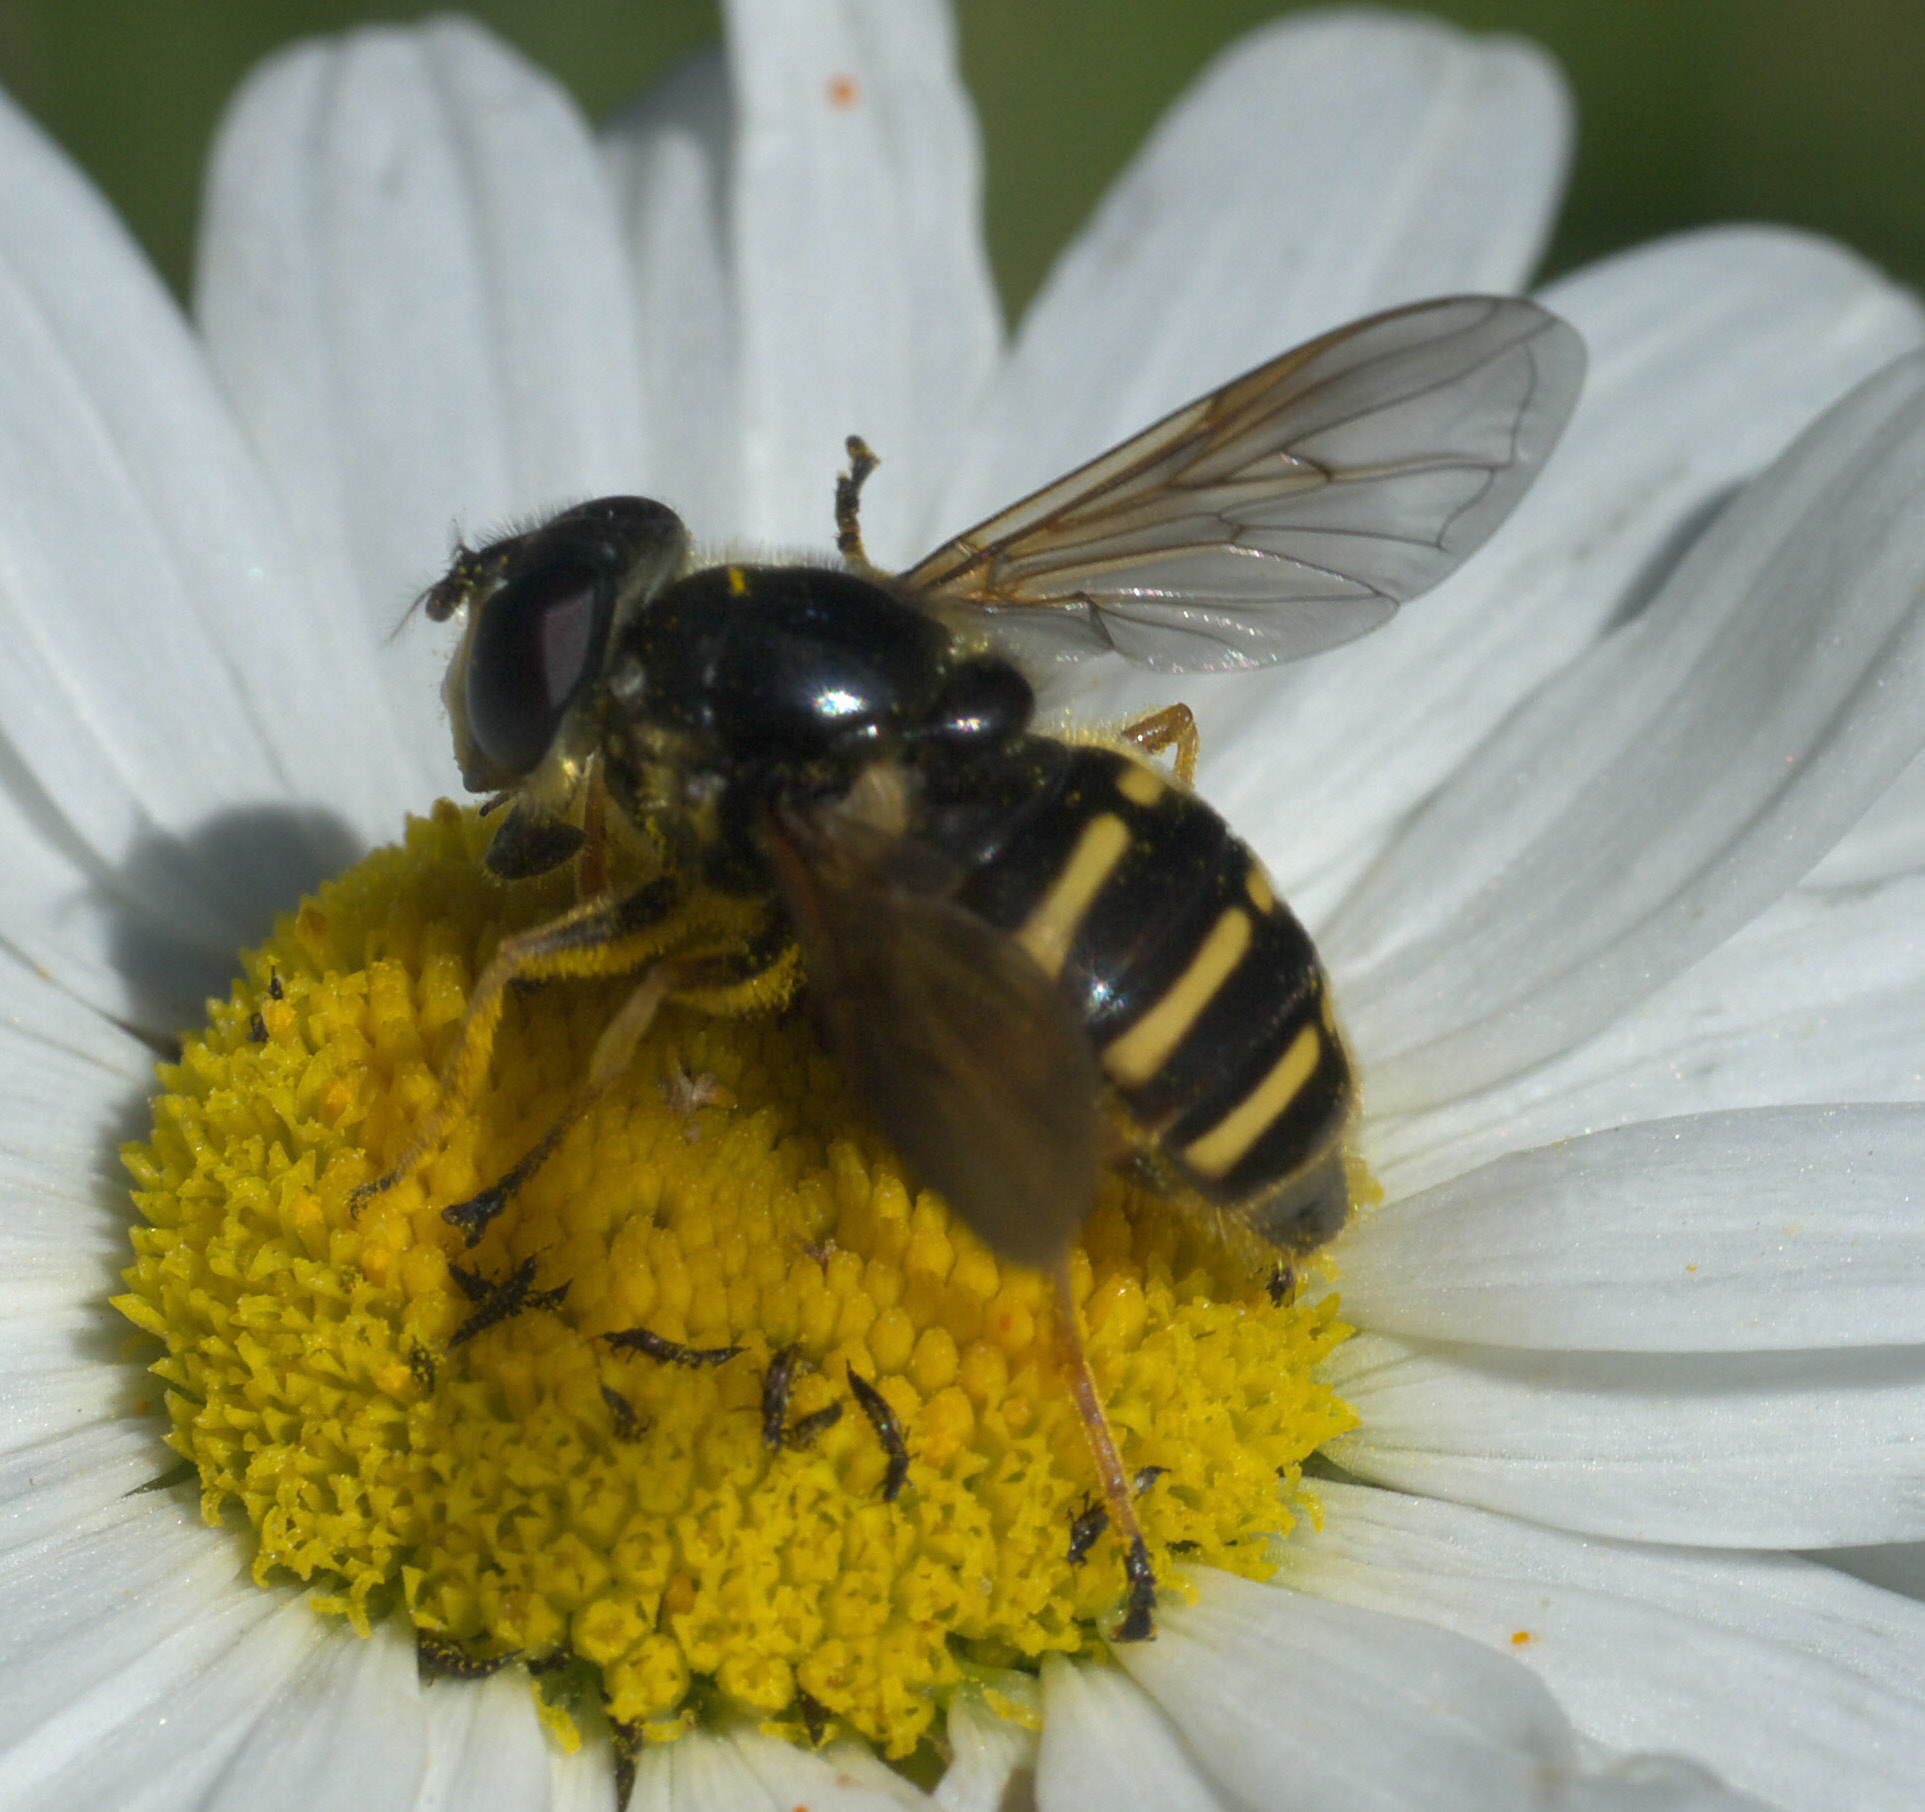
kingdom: Animalia
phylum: Arthropoda
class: Insecta
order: Diptera
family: Syrphidae
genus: Sericomyia
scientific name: Sericomyia chalcopyga
